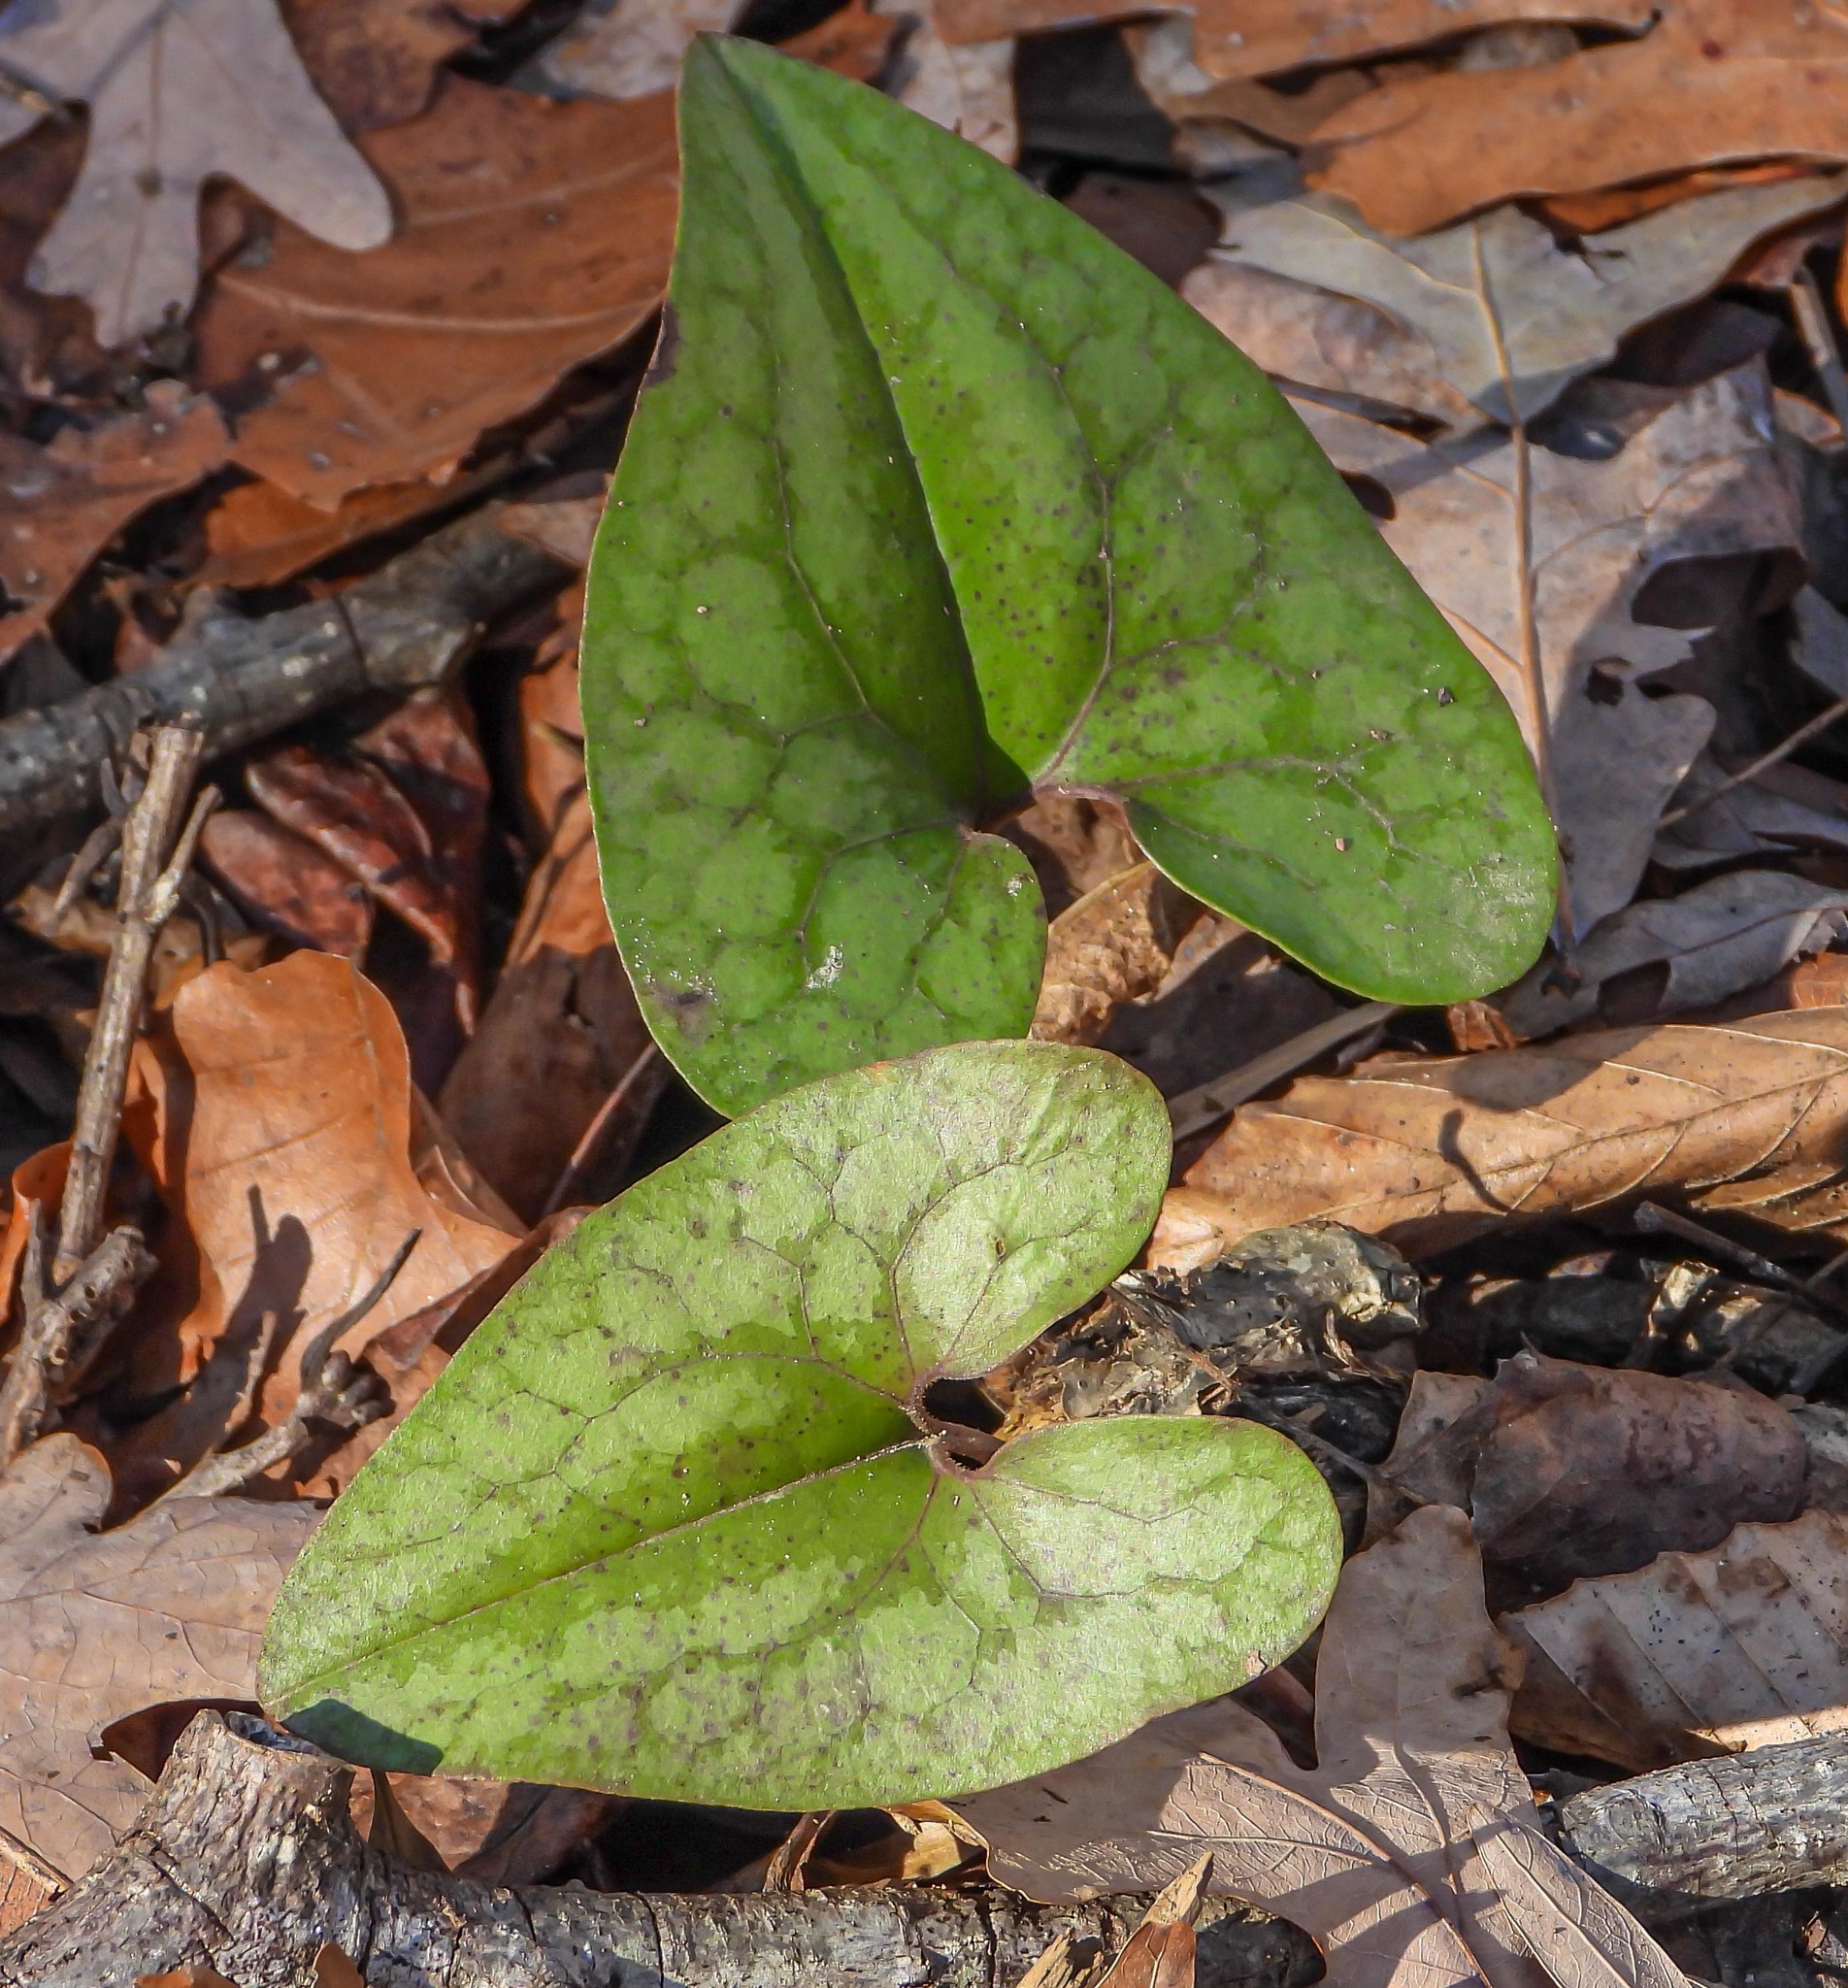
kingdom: Plantae
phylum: Tracheophyta
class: Magnoliopsida
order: Piperales
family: Aristolochiaceae
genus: Hexastylis
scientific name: Hexastylis arifolia
